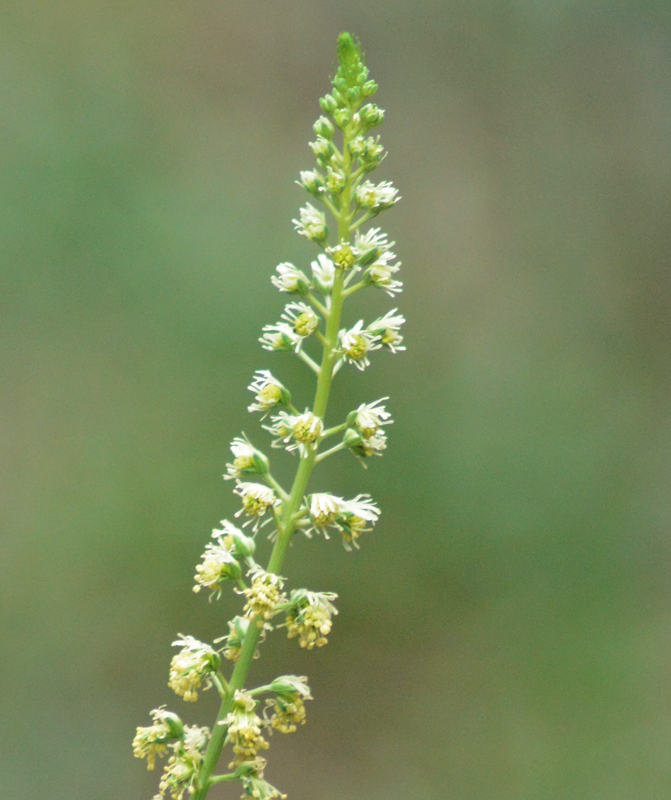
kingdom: Plantae
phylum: Tracheophyta
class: Magnoliopsida
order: Brassicales
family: Resedaceae
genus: Reseda
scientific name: Reseda luteola
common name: Weld
